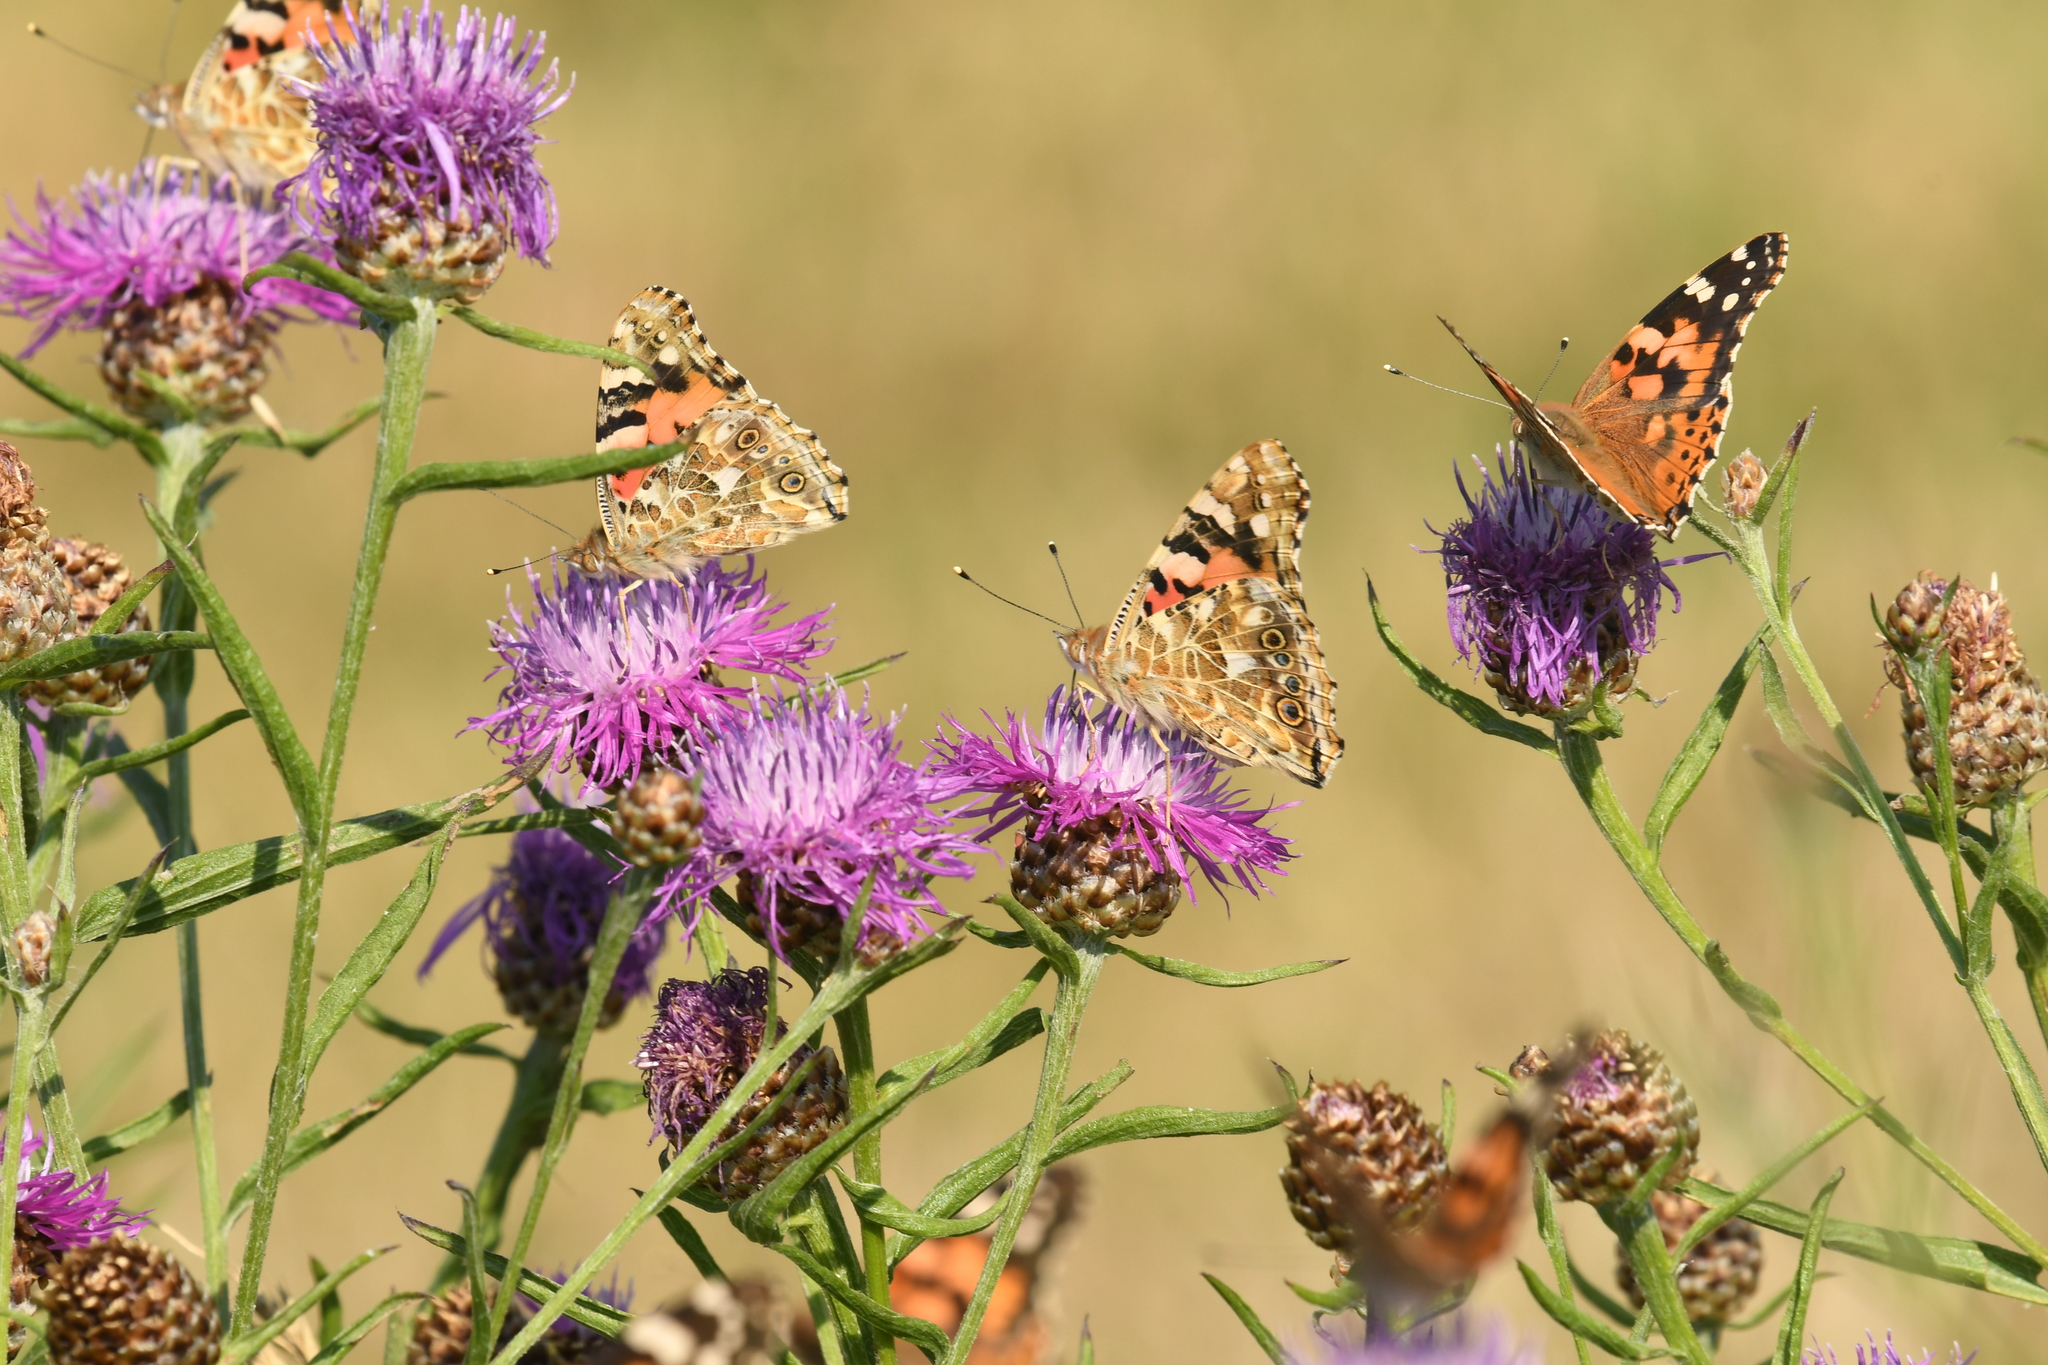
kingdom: Animalia
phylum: Arthropoda
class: Insecta
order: Lepidoptera
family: Nymphalidae
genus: Vanessa
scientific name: Vanessa cardui
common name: Painted lady
